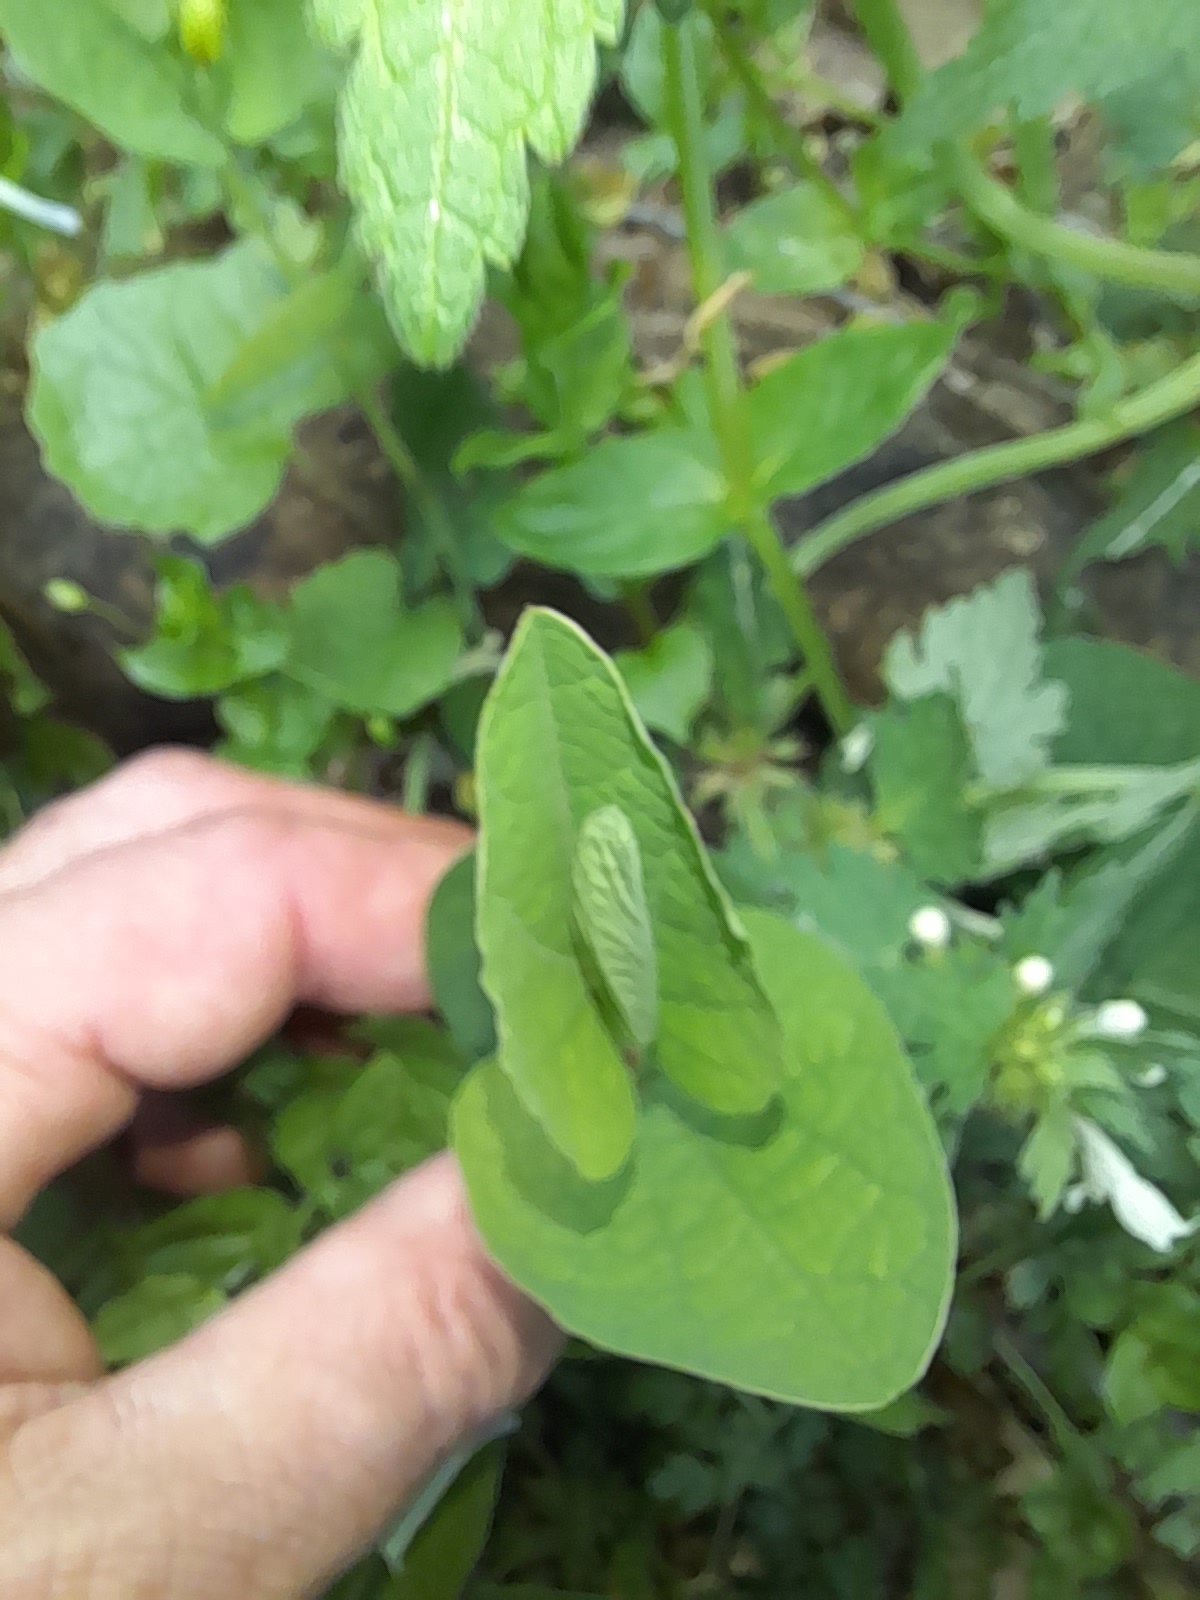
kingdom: Plantae
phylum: Tracheophyta
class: Magnoliopsida
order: Piperales
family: Aristolochiaceae
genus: Aristolochia
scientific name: Aristolochia rotunda
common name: Smearwort
